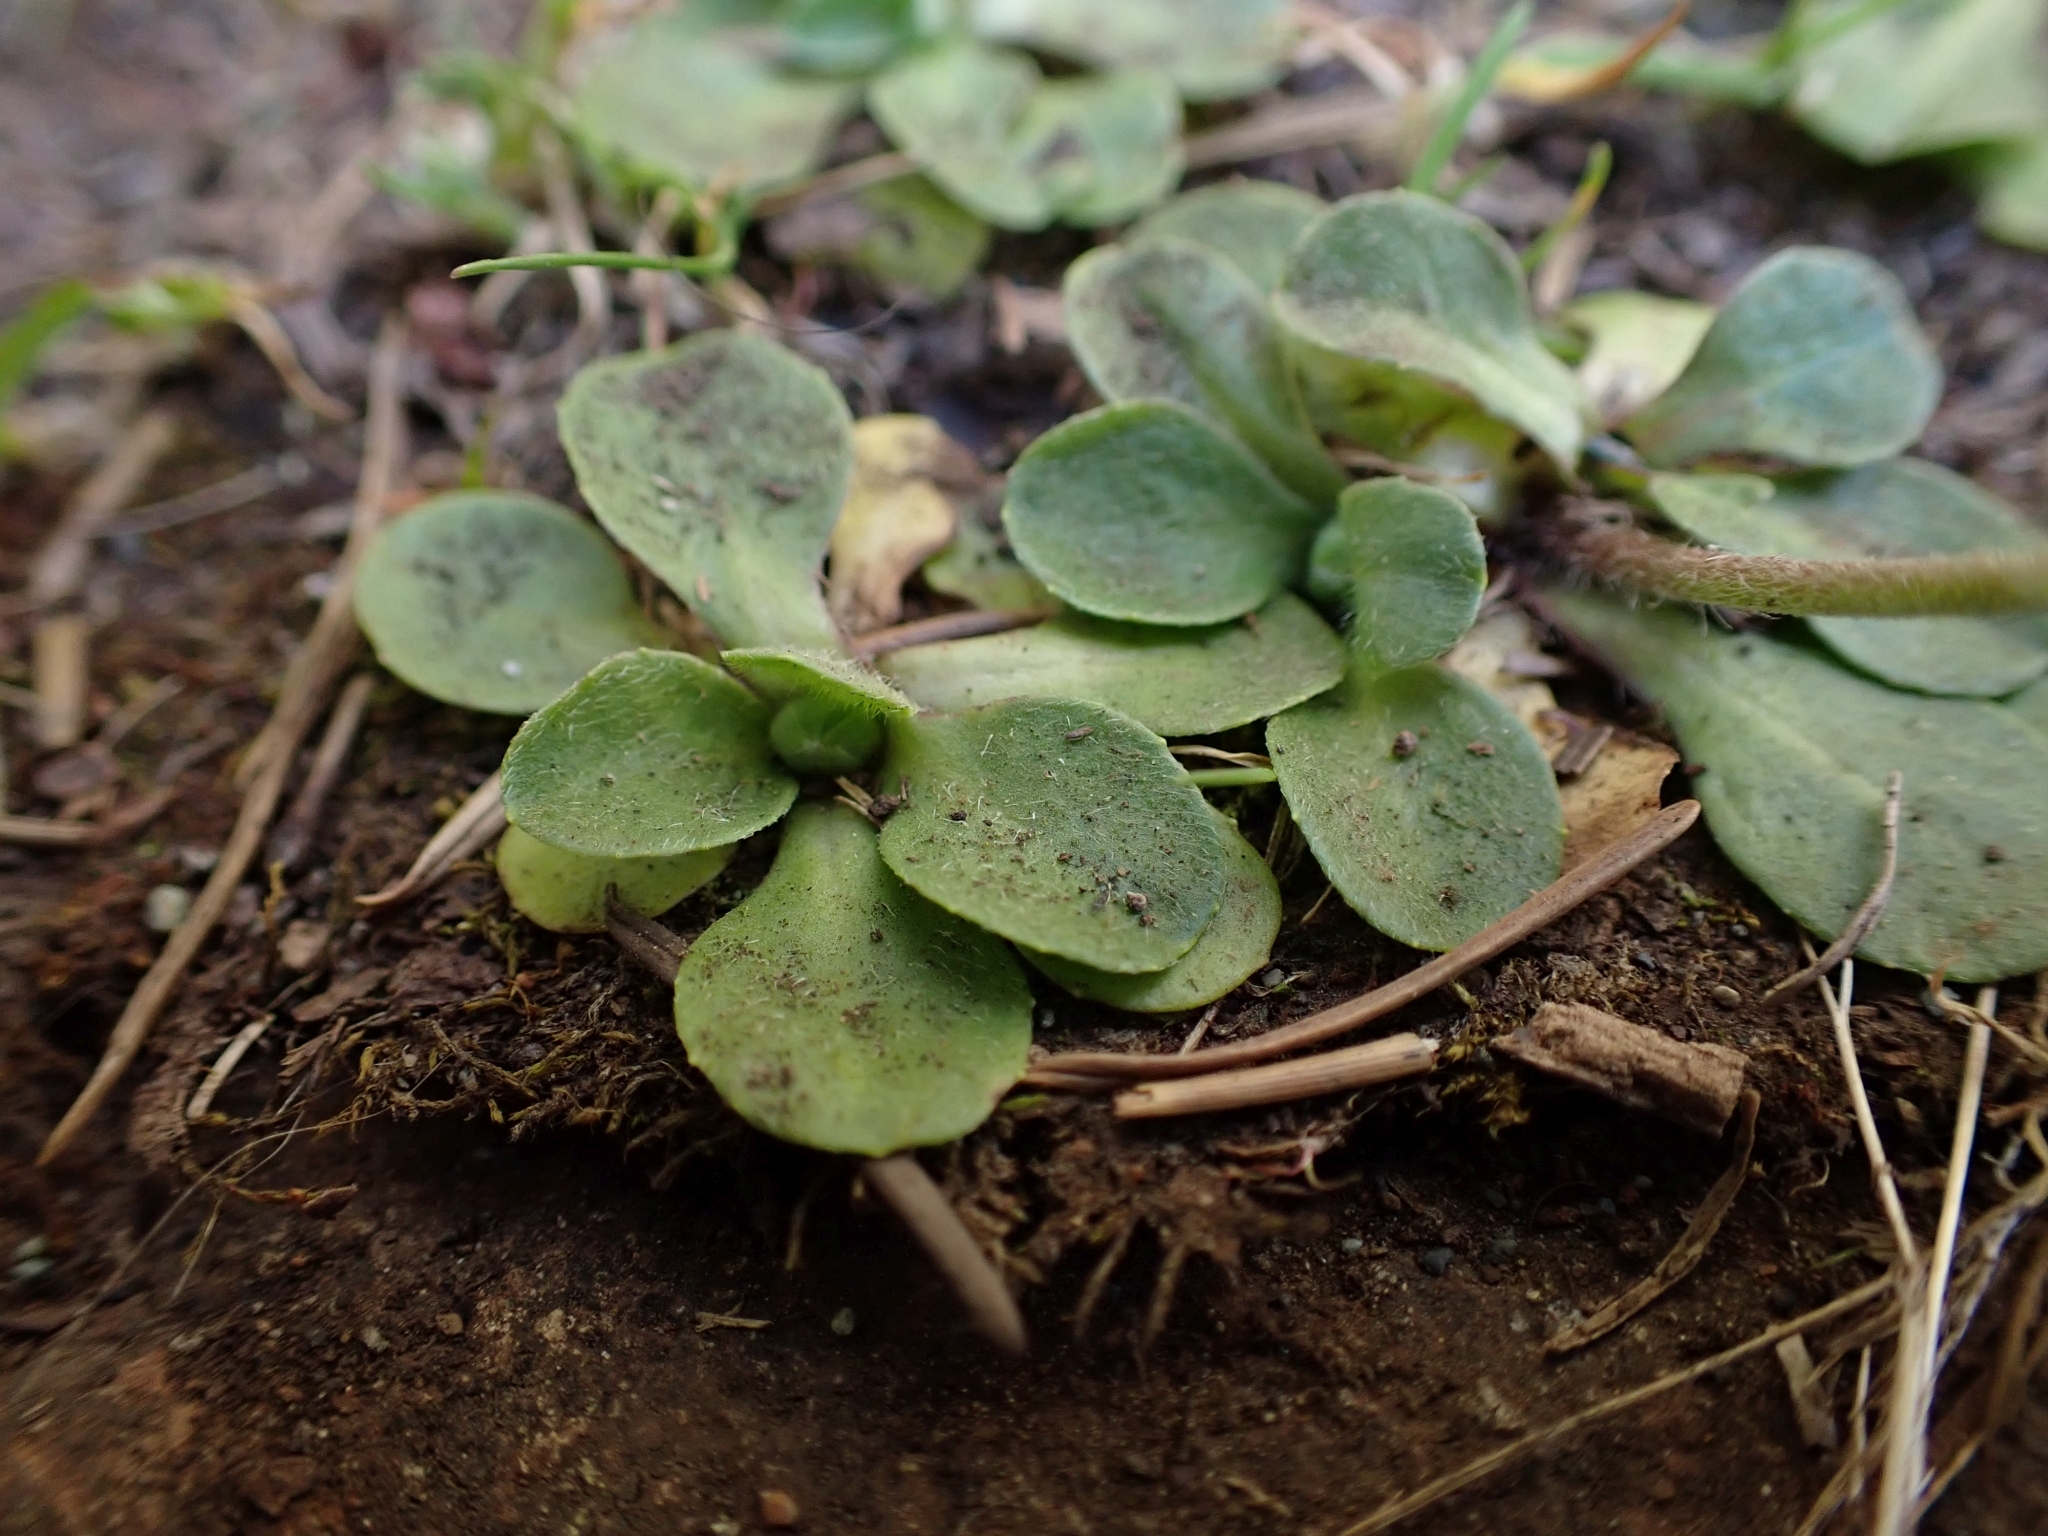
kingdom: Plantae
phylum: Tracheophyta
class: Magnoliopsida
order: Asterales
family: Asteraceae
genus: Bellis
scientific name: Bellis perennis
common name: Lawndaisy
